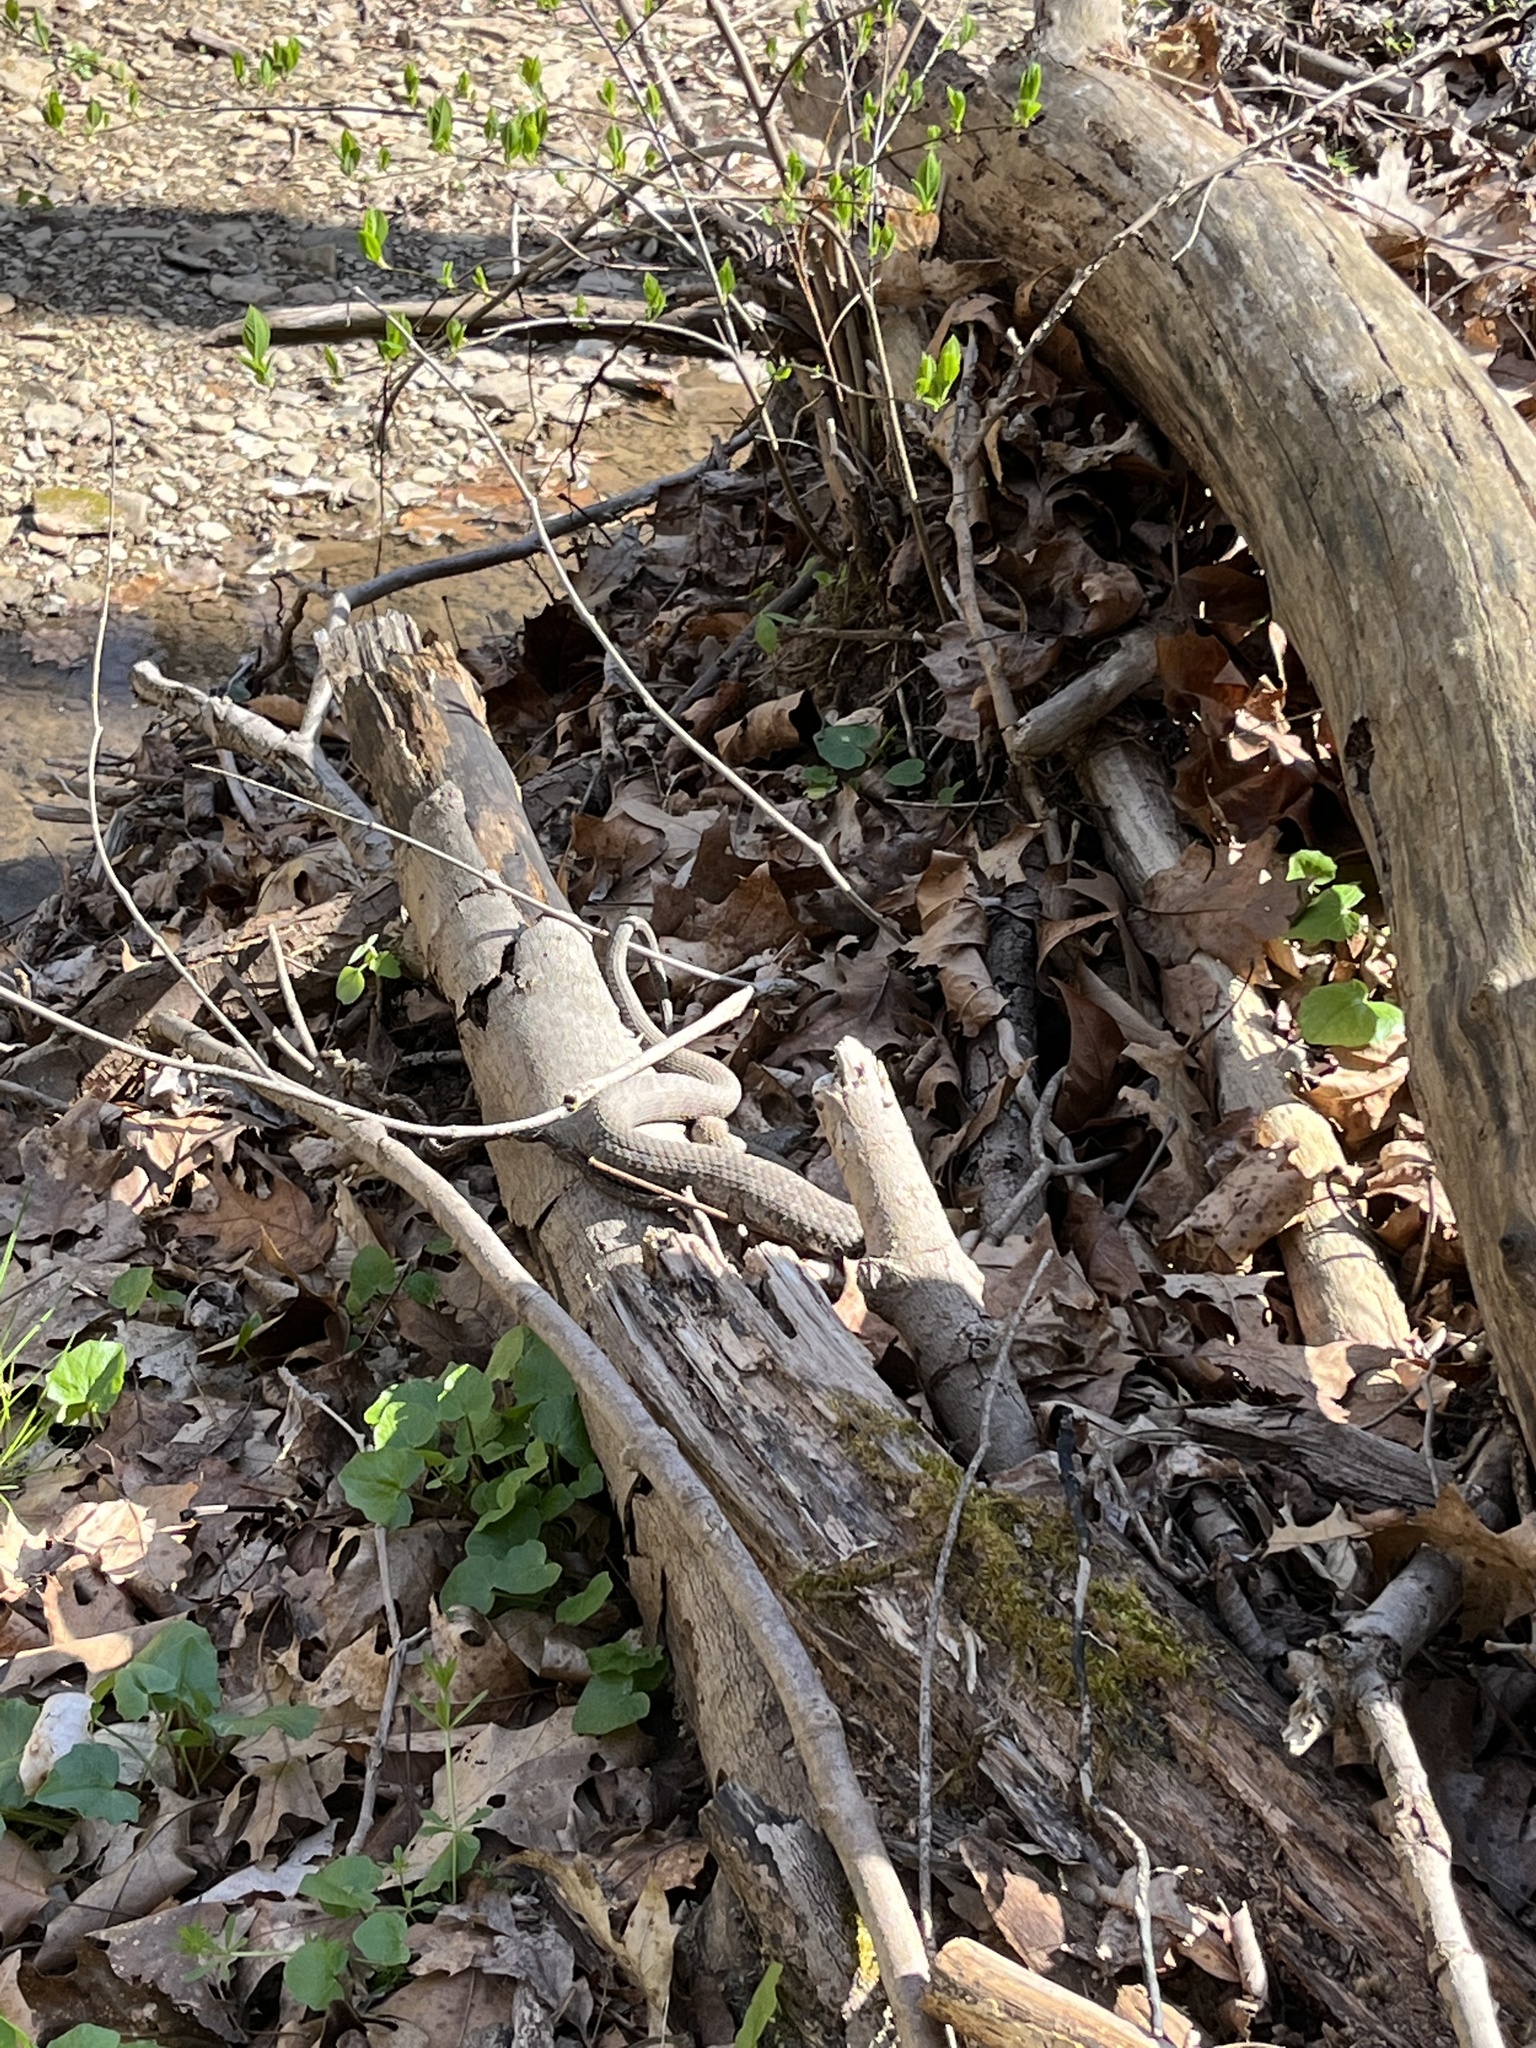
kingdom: Animalia
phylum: Chordata
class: Squamata
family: Colubridae
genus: Nerodia
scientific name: Nerodia sipedon
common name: Northern water snake
